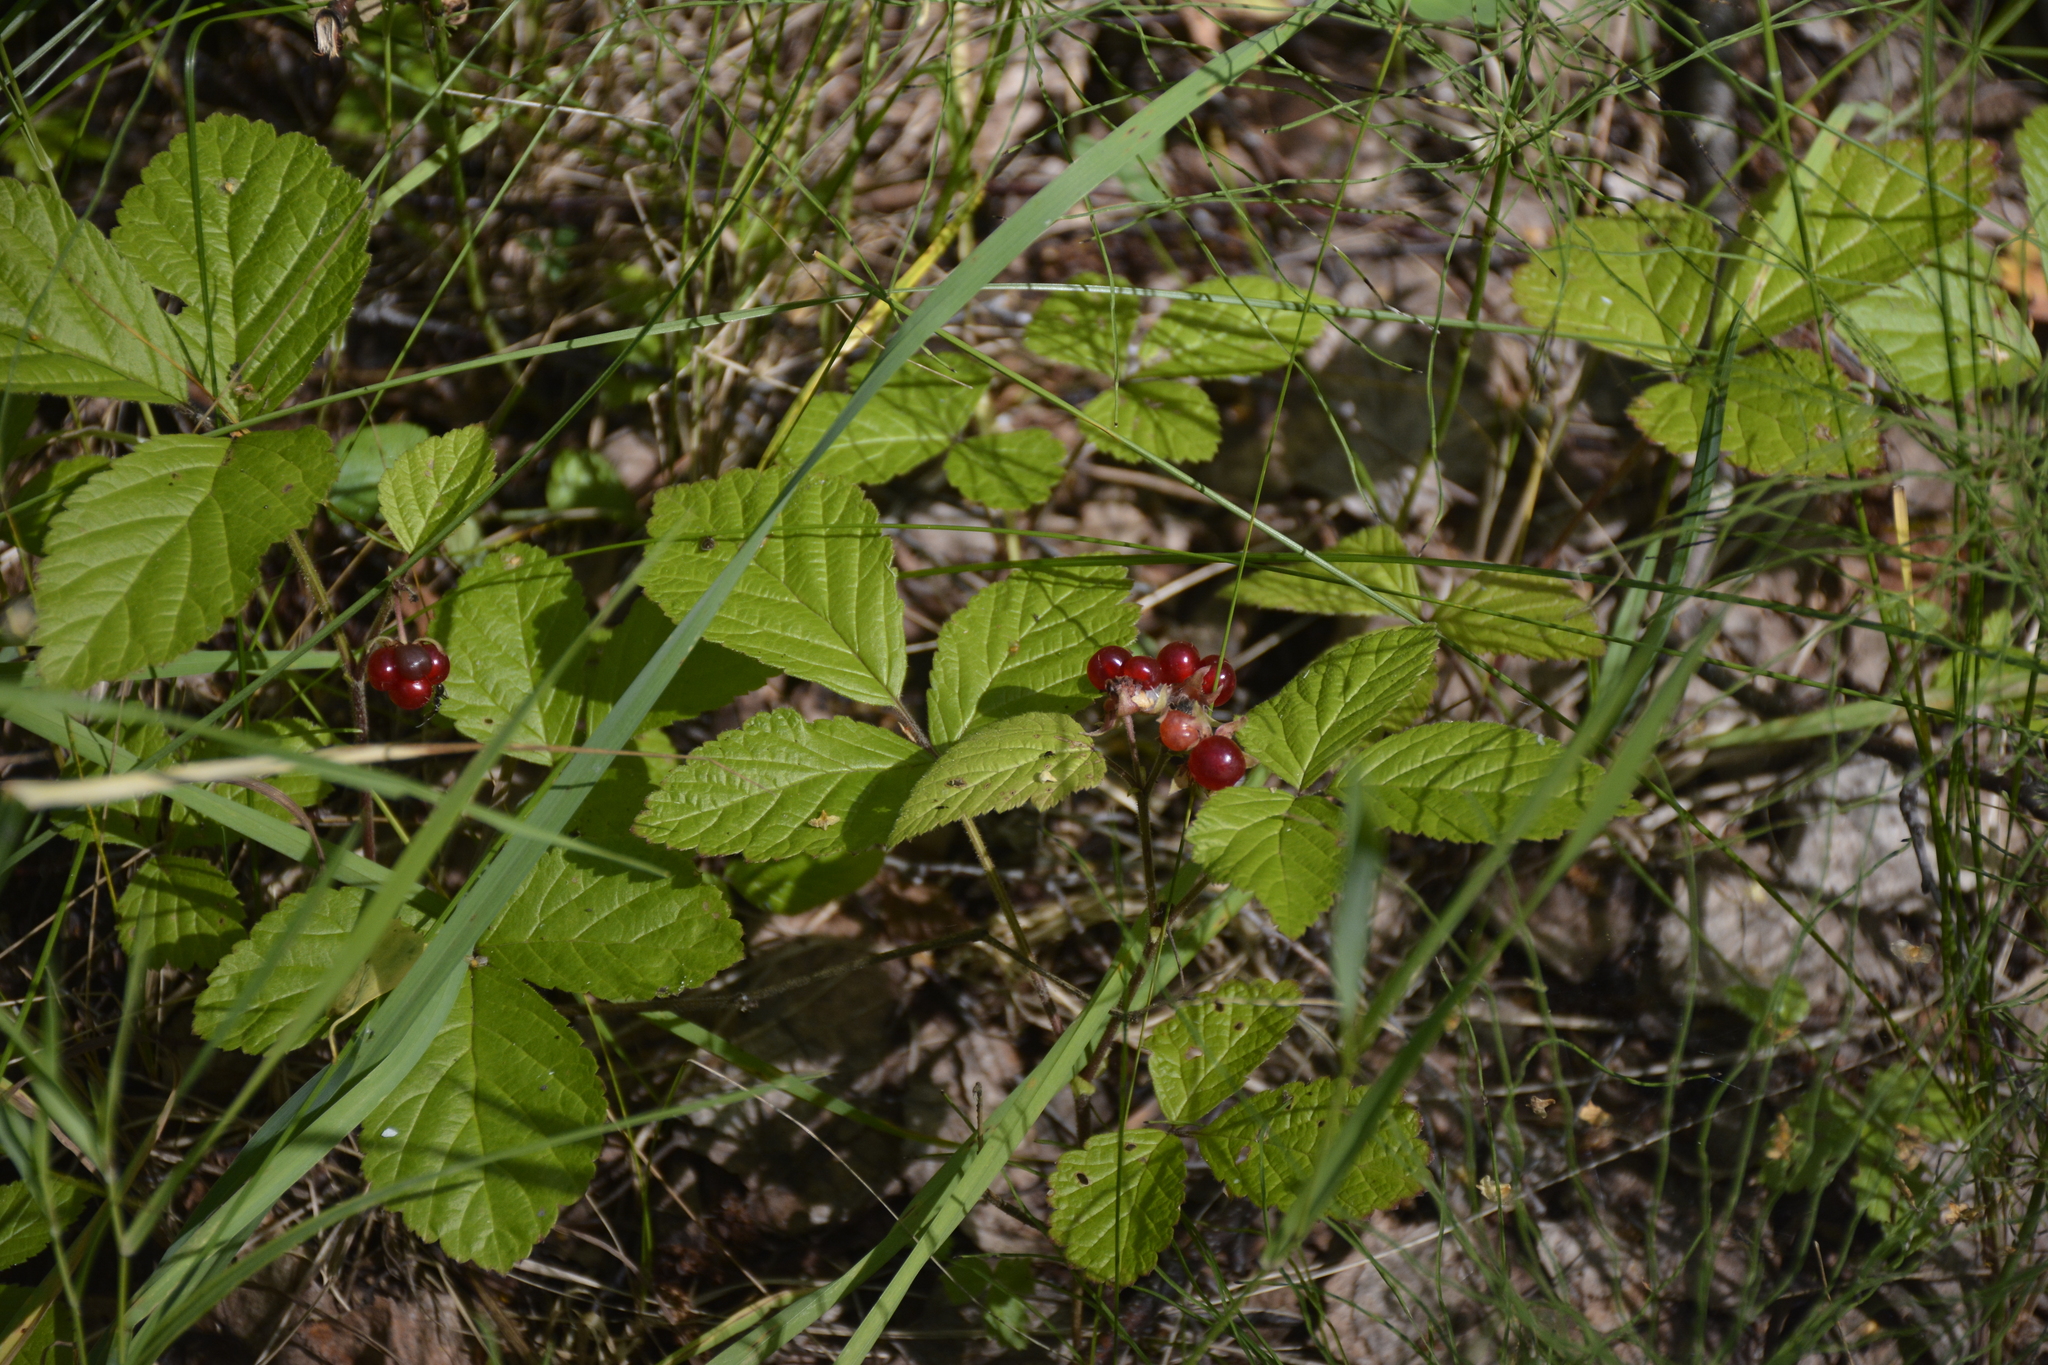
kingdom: Plantae
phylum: Tracheophyta
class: Magnoliopsida
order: Rosales
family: Rosaceae
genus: Rubus
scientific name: Rubus saxatilis
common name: Stone bramble
